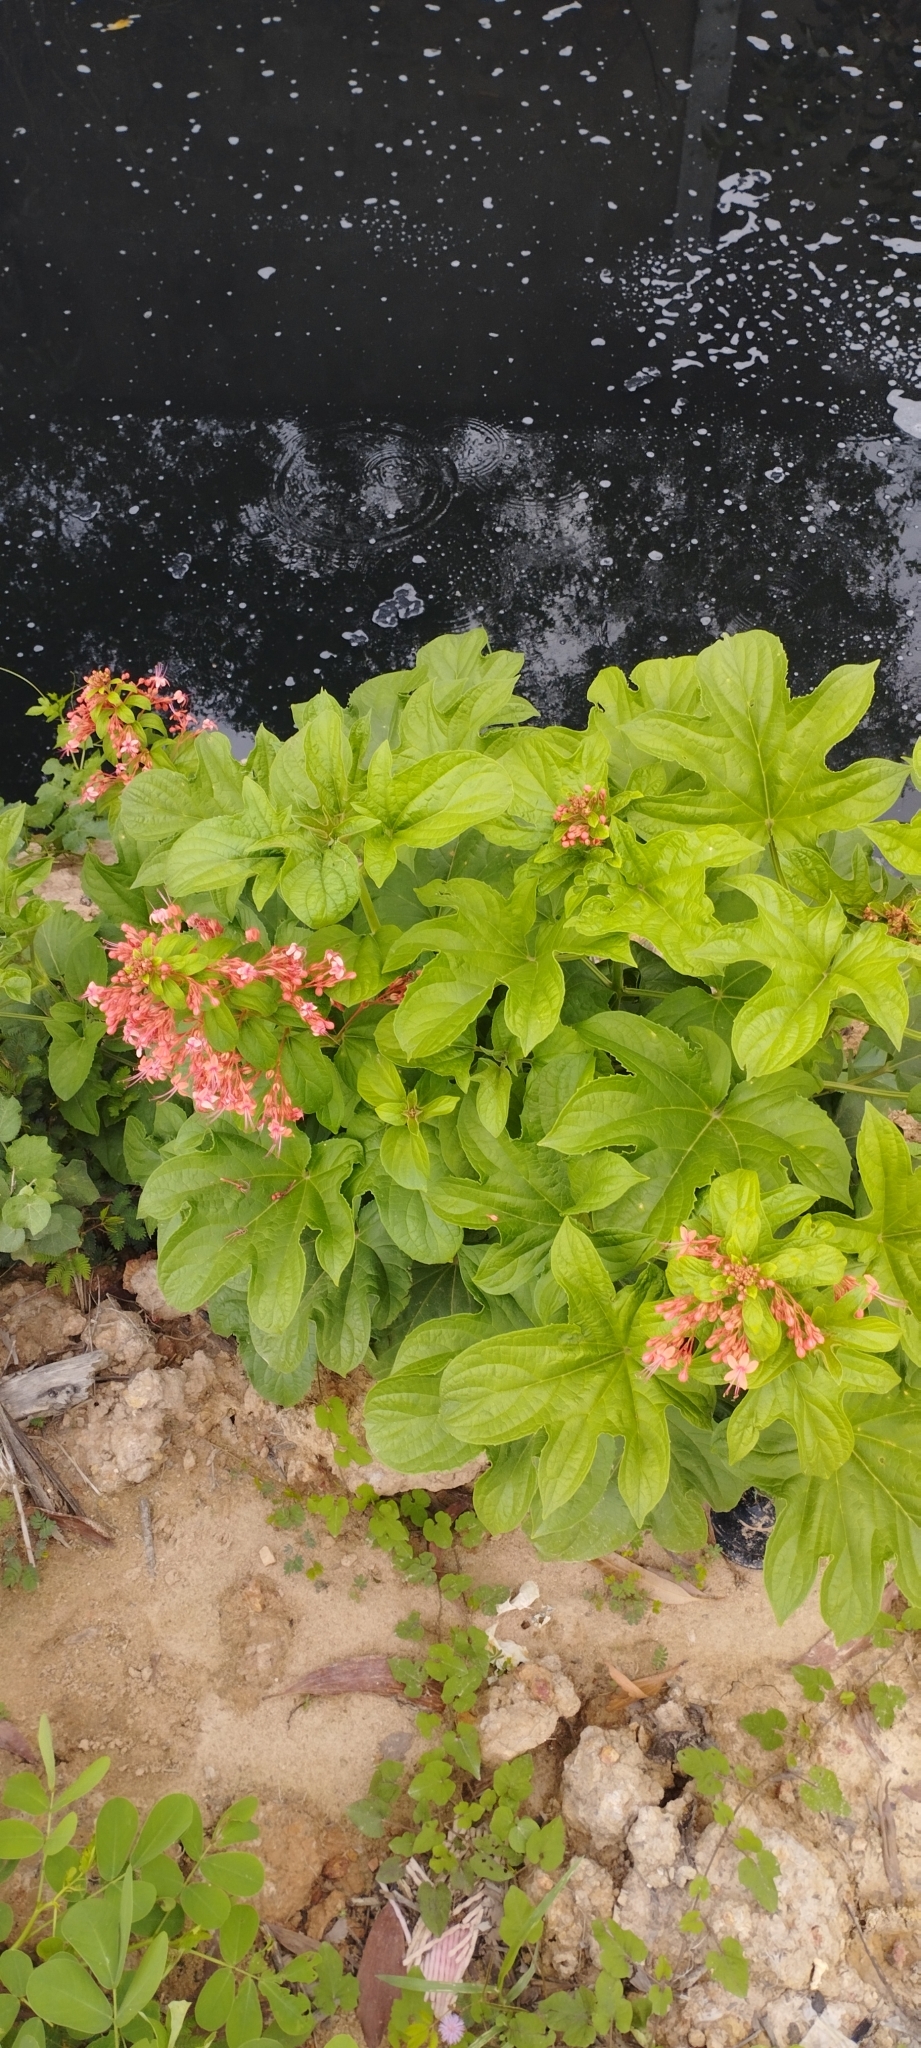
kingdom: Plantae
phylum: Tracheophyta
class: Magnoliopsida
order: Lamiales
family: Lamiaceae
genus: Clerodendrum
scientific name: Clerodendrum paniculatum
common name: Pagoda-flower
